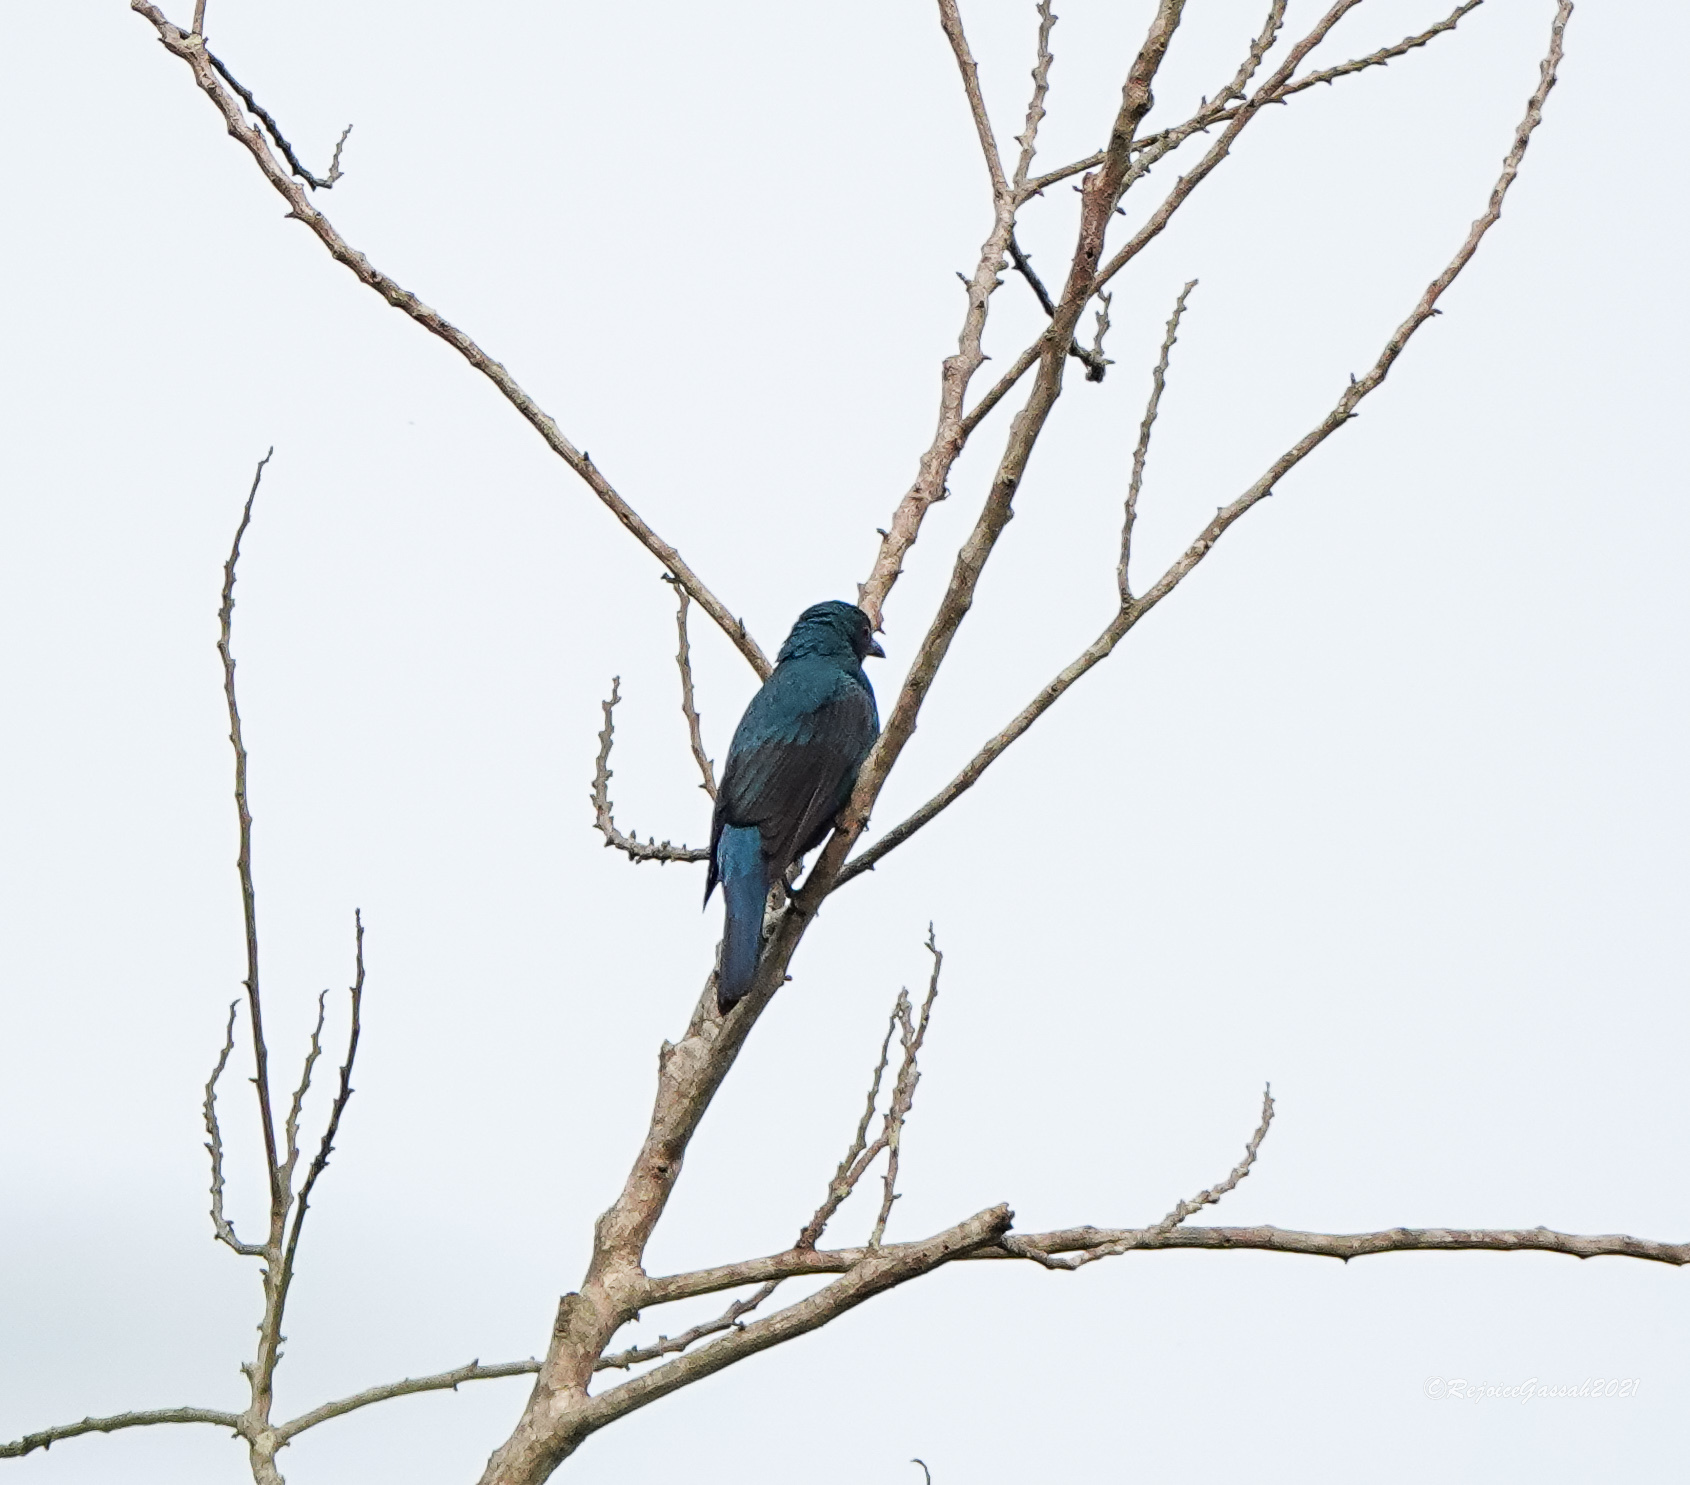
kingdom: Animalia
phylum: Chordata
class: Aves
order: Passeriformes
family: Irenidae
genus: Irena
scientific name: Irena puella
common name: Asian fairy-bluebird
